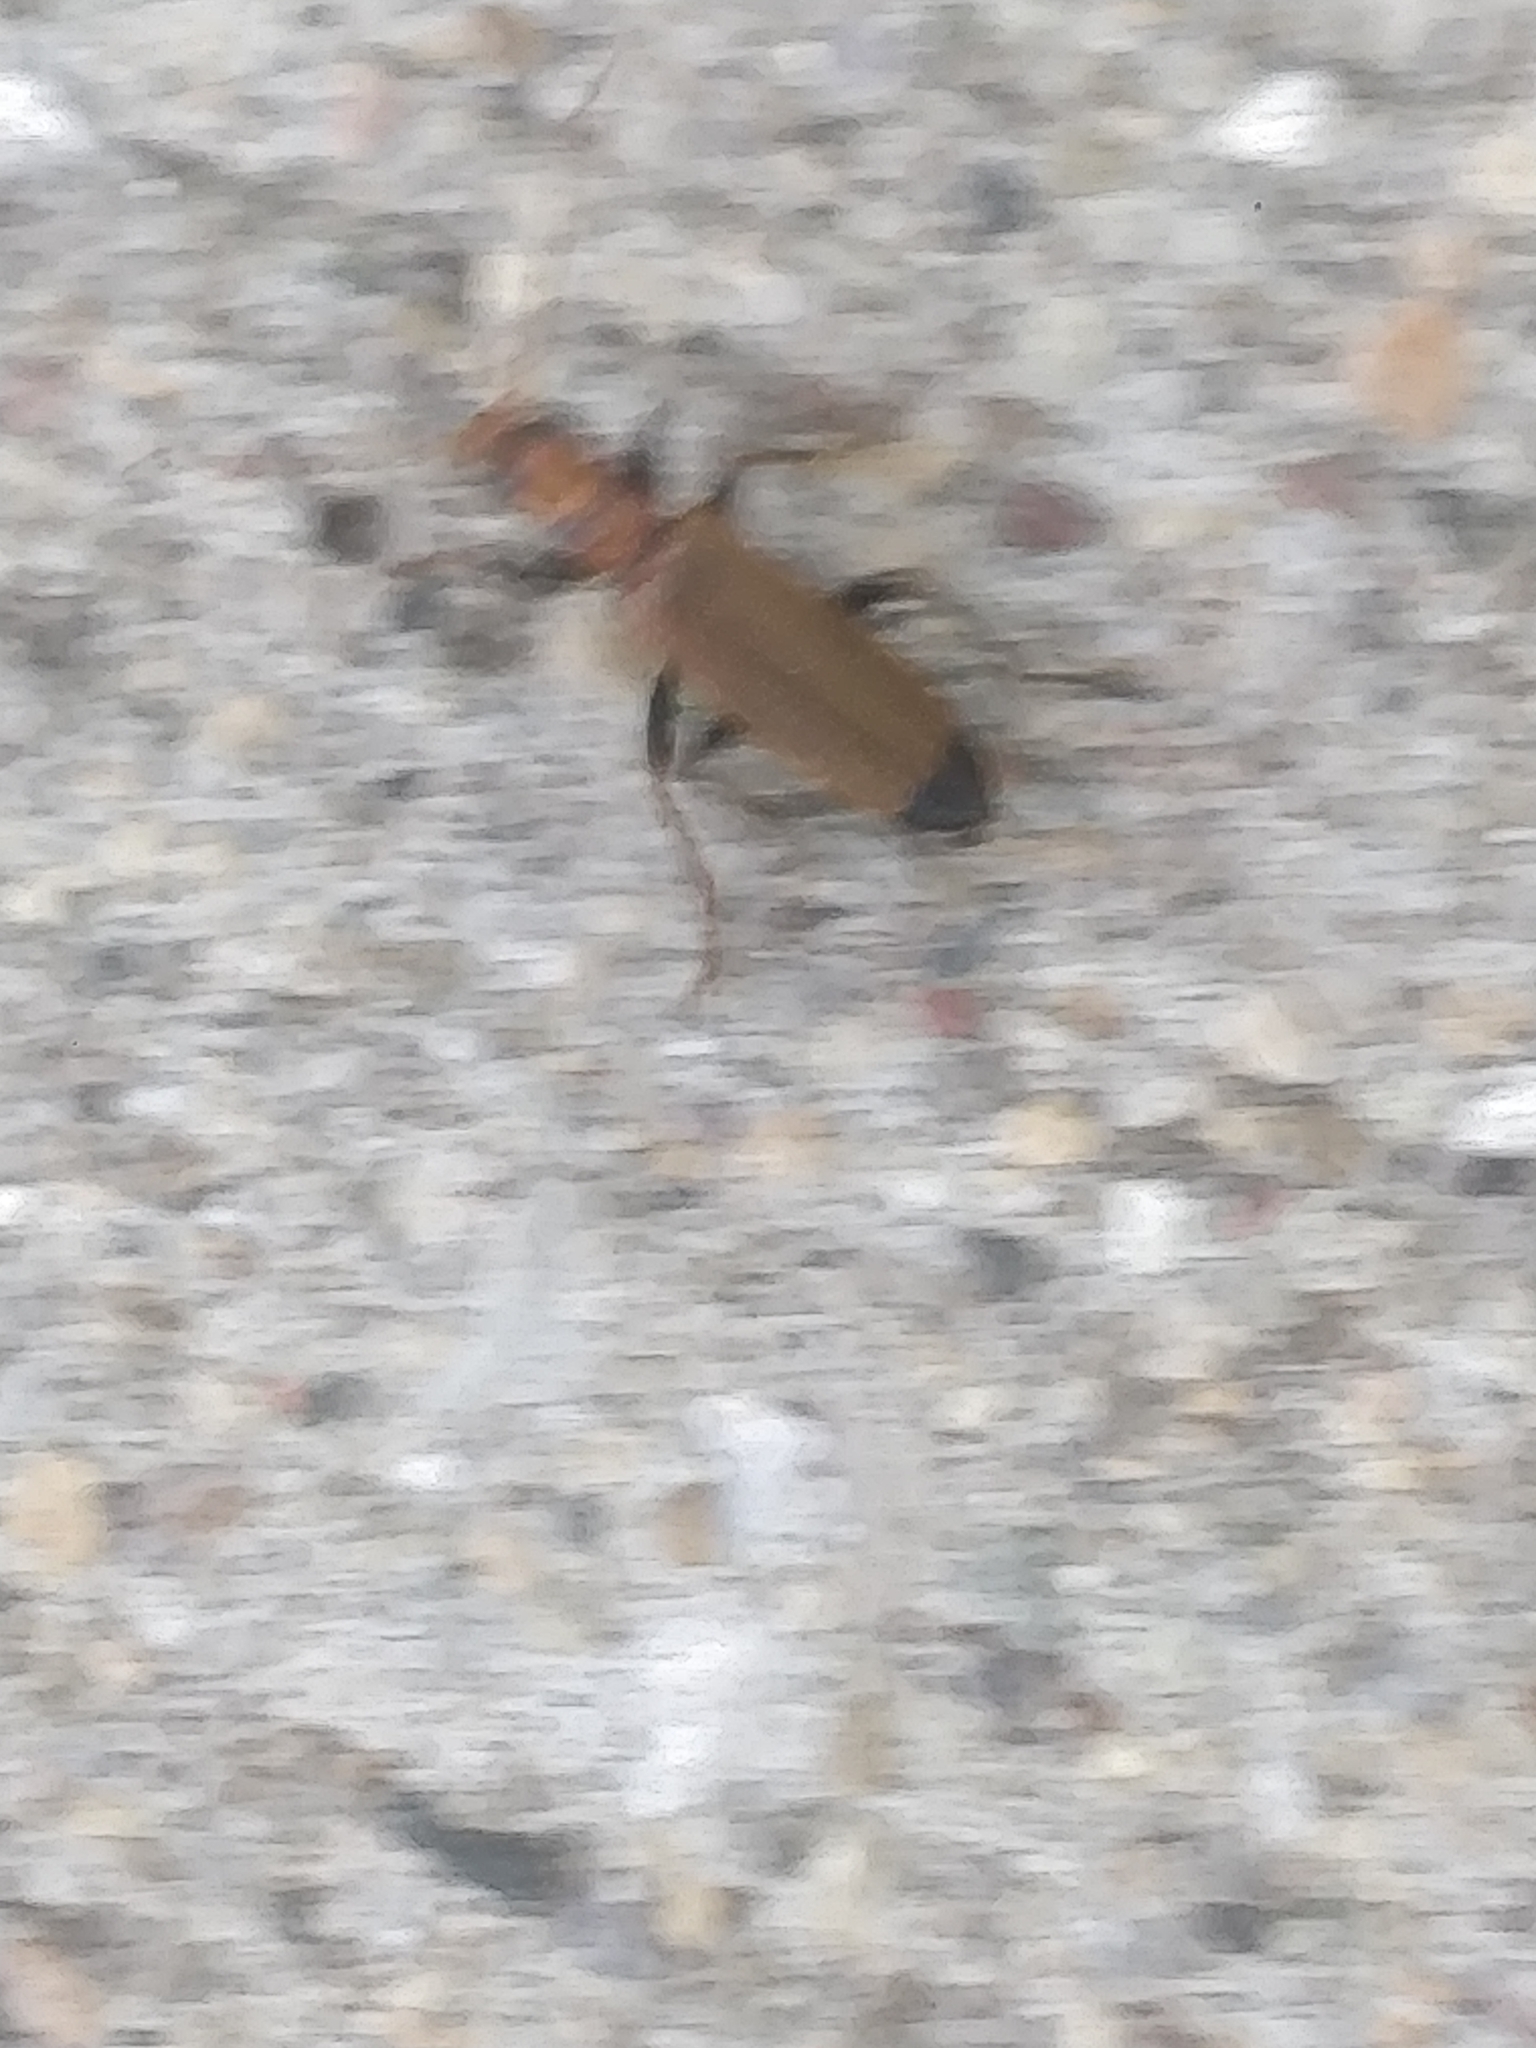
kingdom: Animalia
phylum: Arthropoda
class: Insecta
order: Coleoptera
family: Oedemeridae
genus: Nacerdes
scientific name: Nacerdes melanura
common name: Wharf borer
